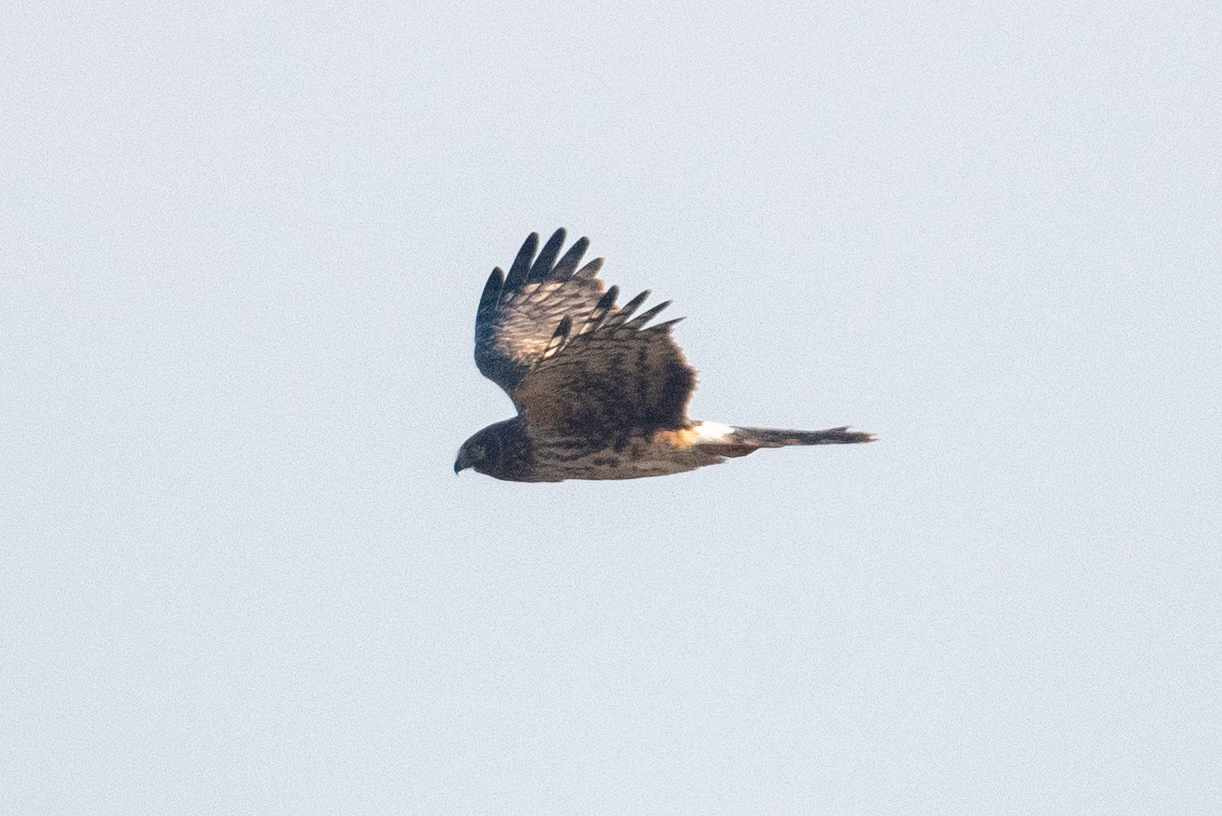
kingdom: Animalia
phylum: Chordata
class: Aves
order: Accipitriformes
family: Accipitridae
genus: Circus
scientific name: Circus cyaneus
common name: Hen harrier
